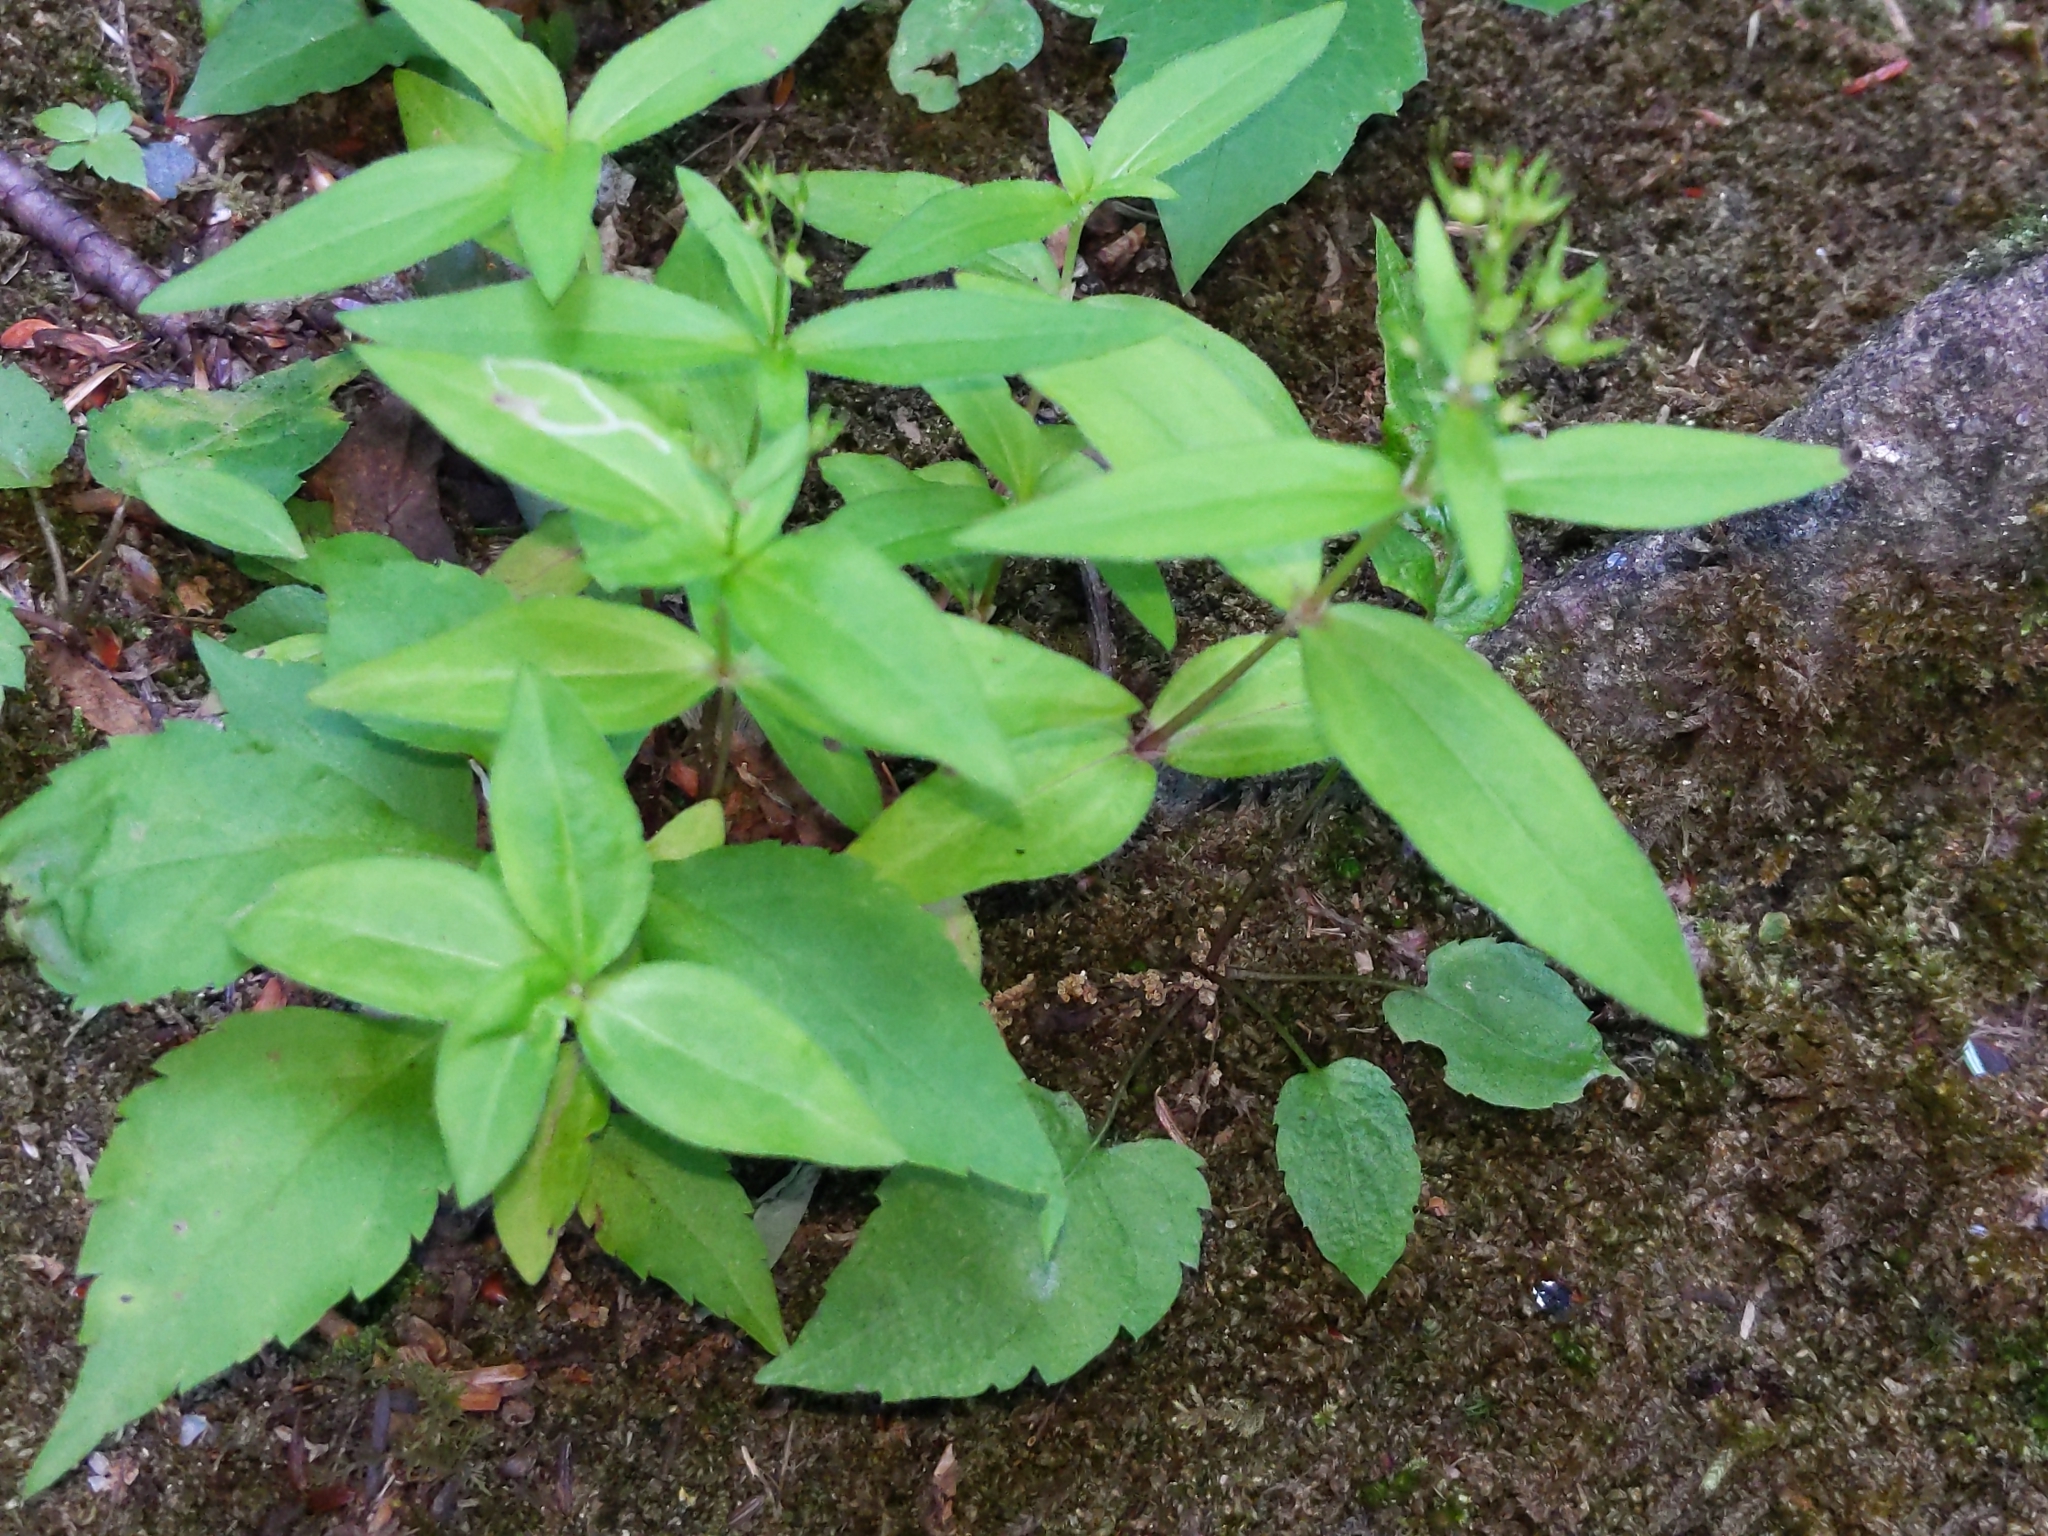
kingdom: Plantae
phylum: Tracheophyta
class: Magnoliopsida
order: Gentianales
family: Rubiaceae
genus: Houstonia
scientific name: Houstonia purpurea
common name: Summer bluet
